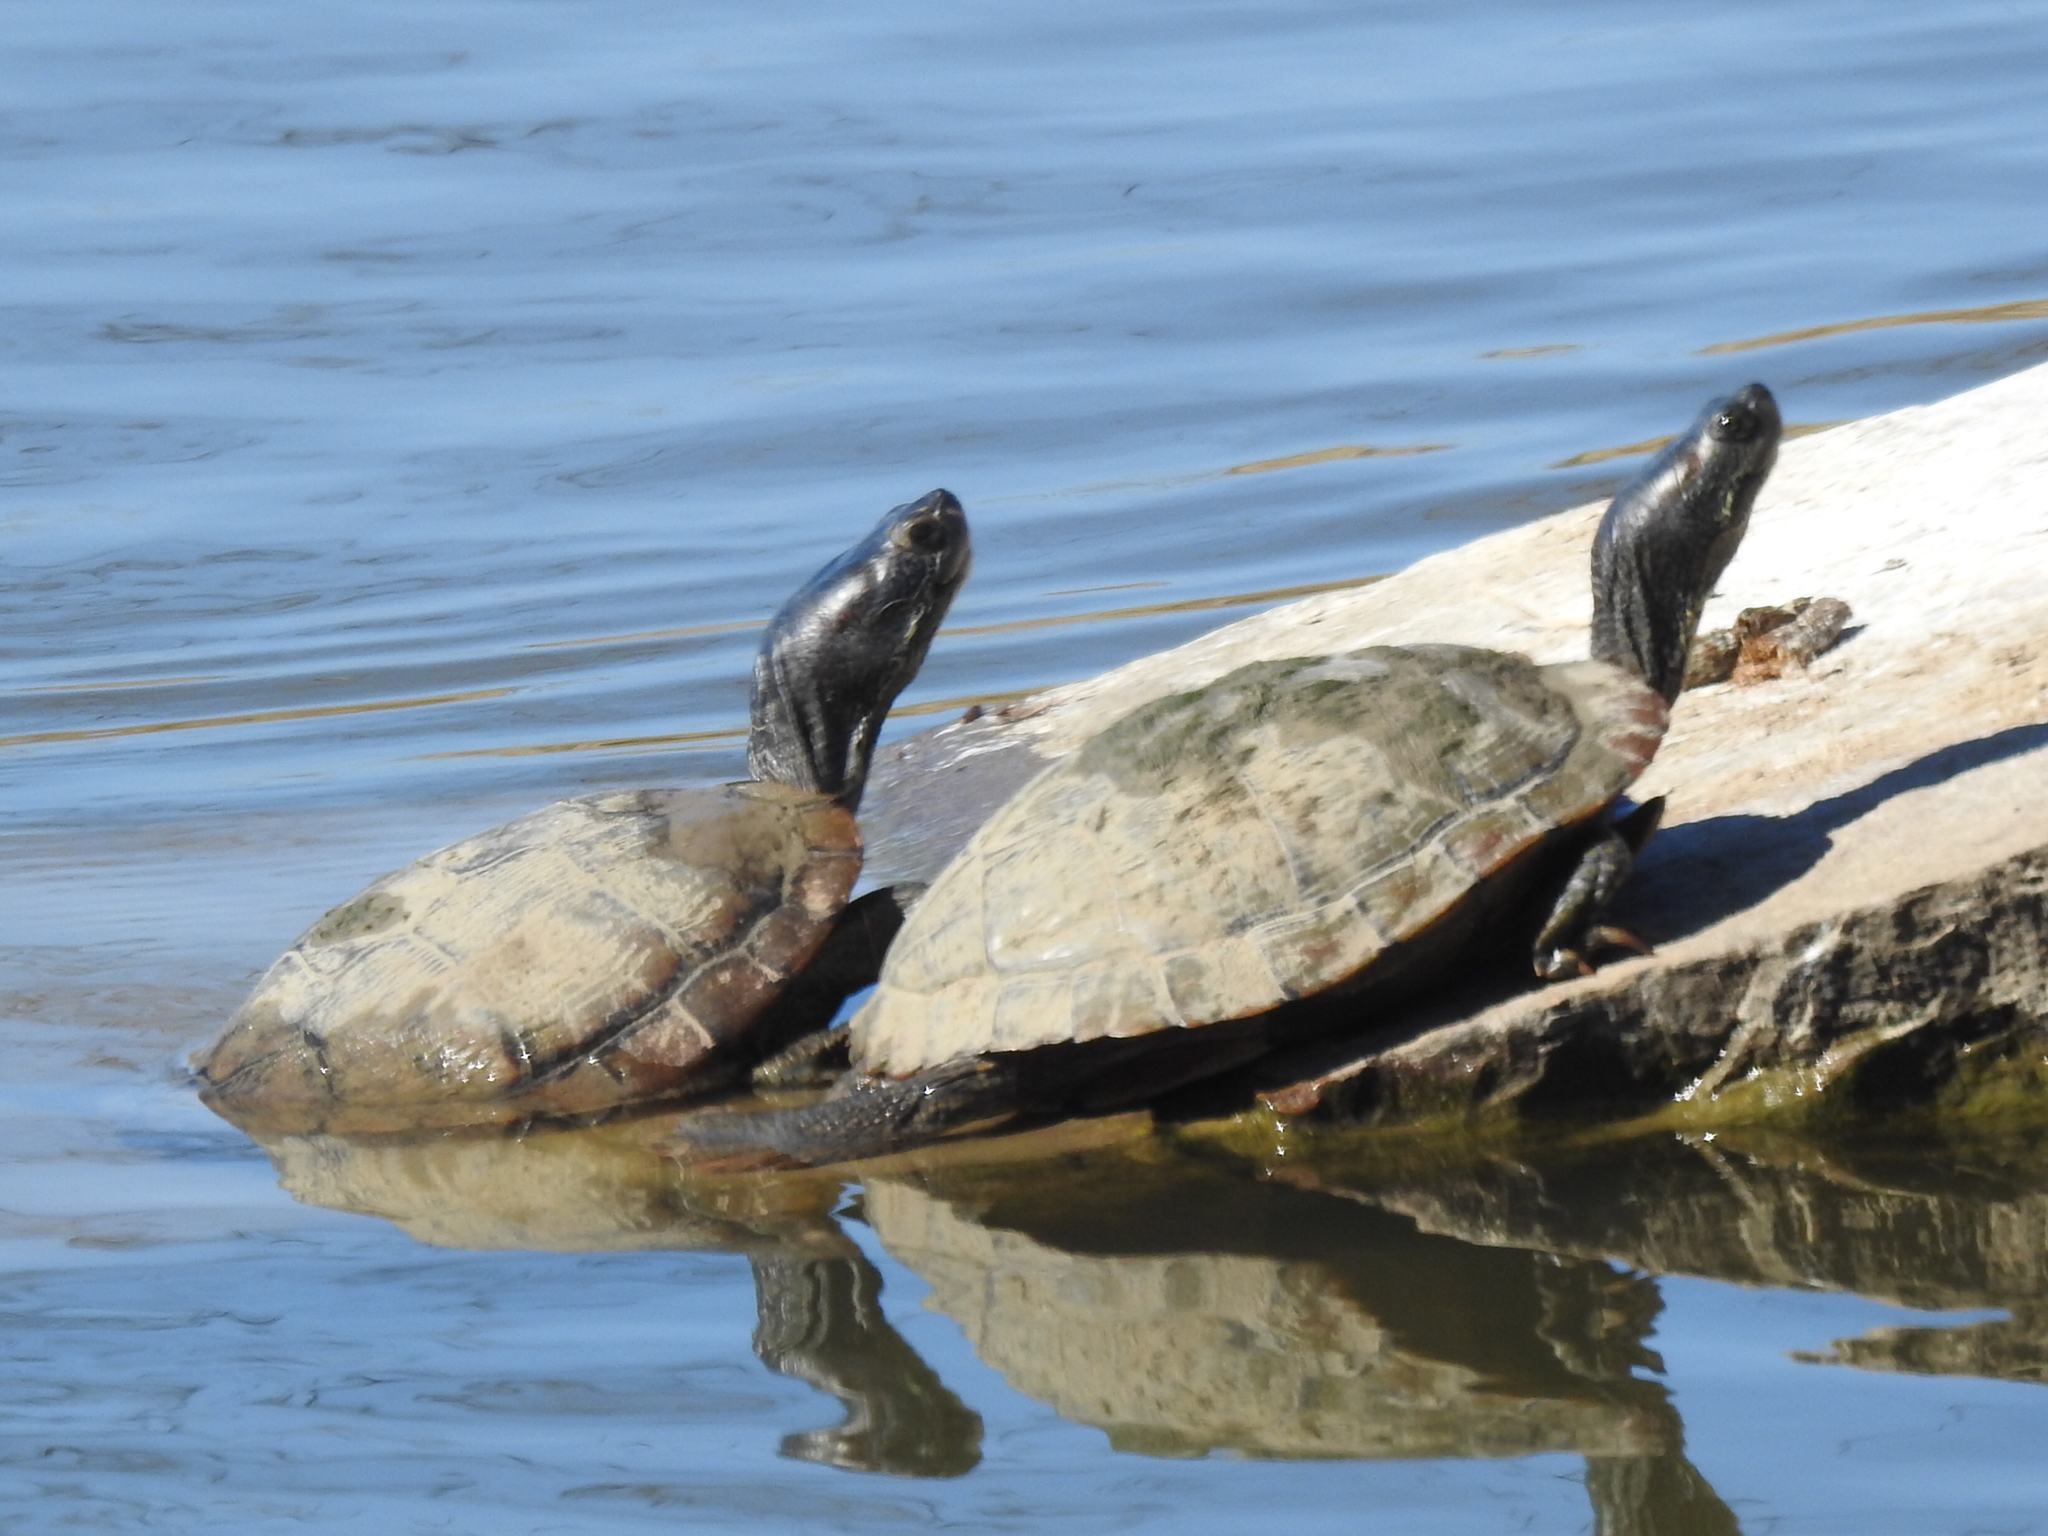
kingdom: Animalia
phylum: Chordata
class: Testudines
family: Emydidae
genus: Trachemys
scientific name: Trachemys scripta
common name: Slider
